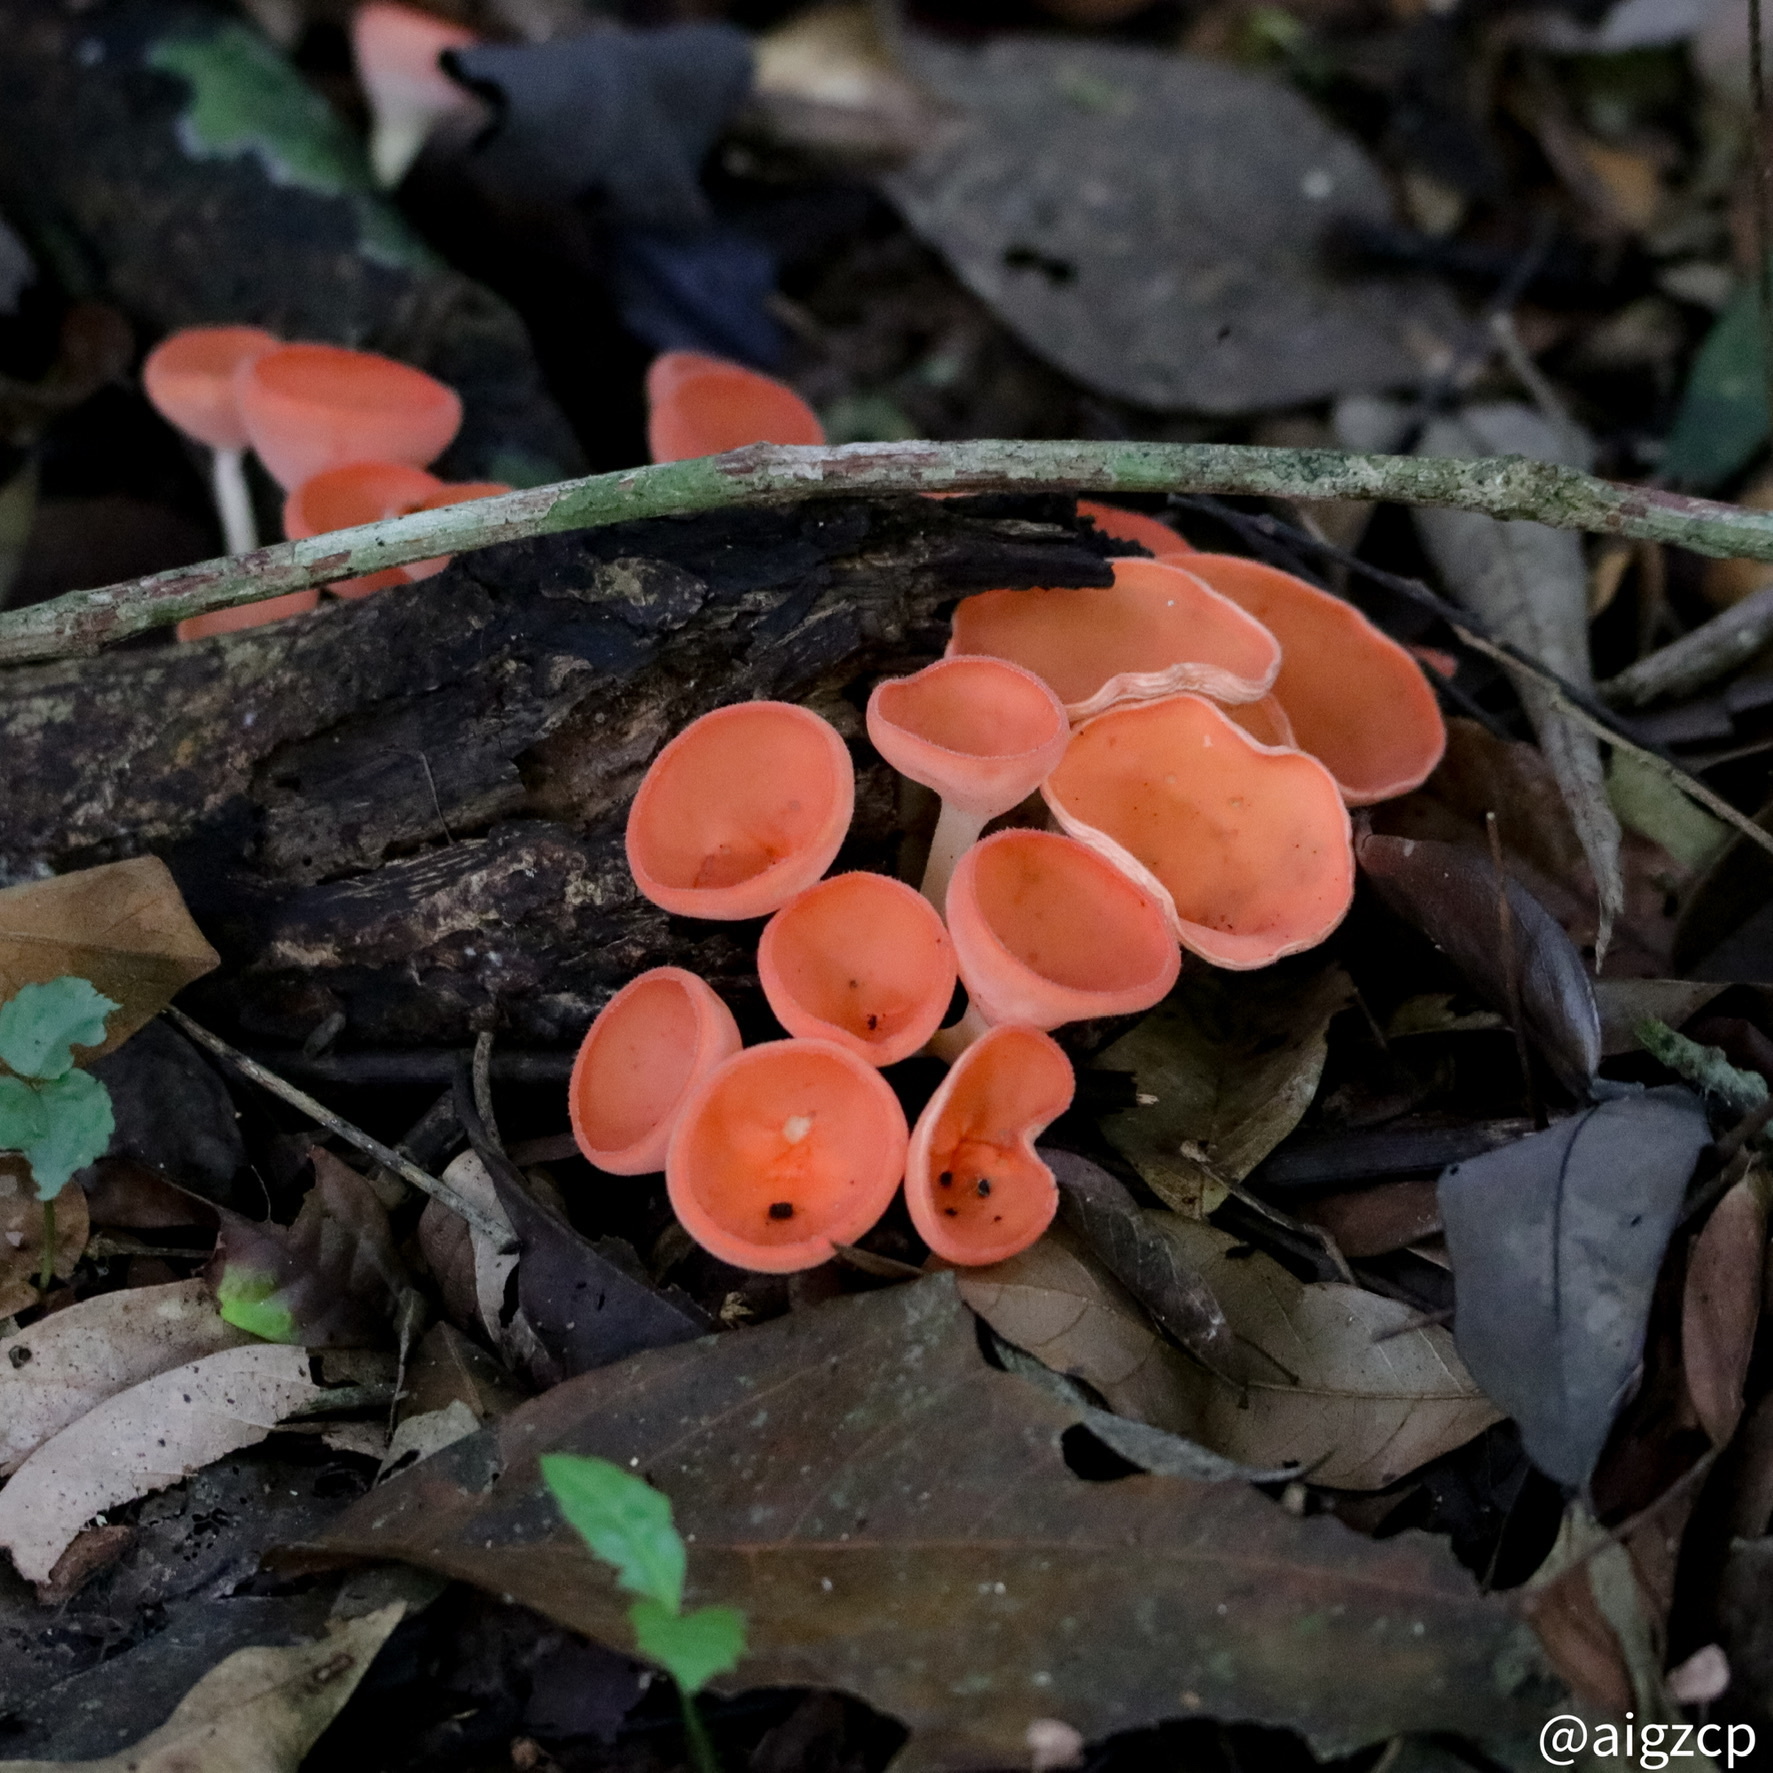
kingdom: Fungi
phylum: Ascomycota
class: Pezizomycetes
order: Pezizales
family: Sarcoscyphaceae
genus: Cookeina
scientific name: Cookeina speciosa
